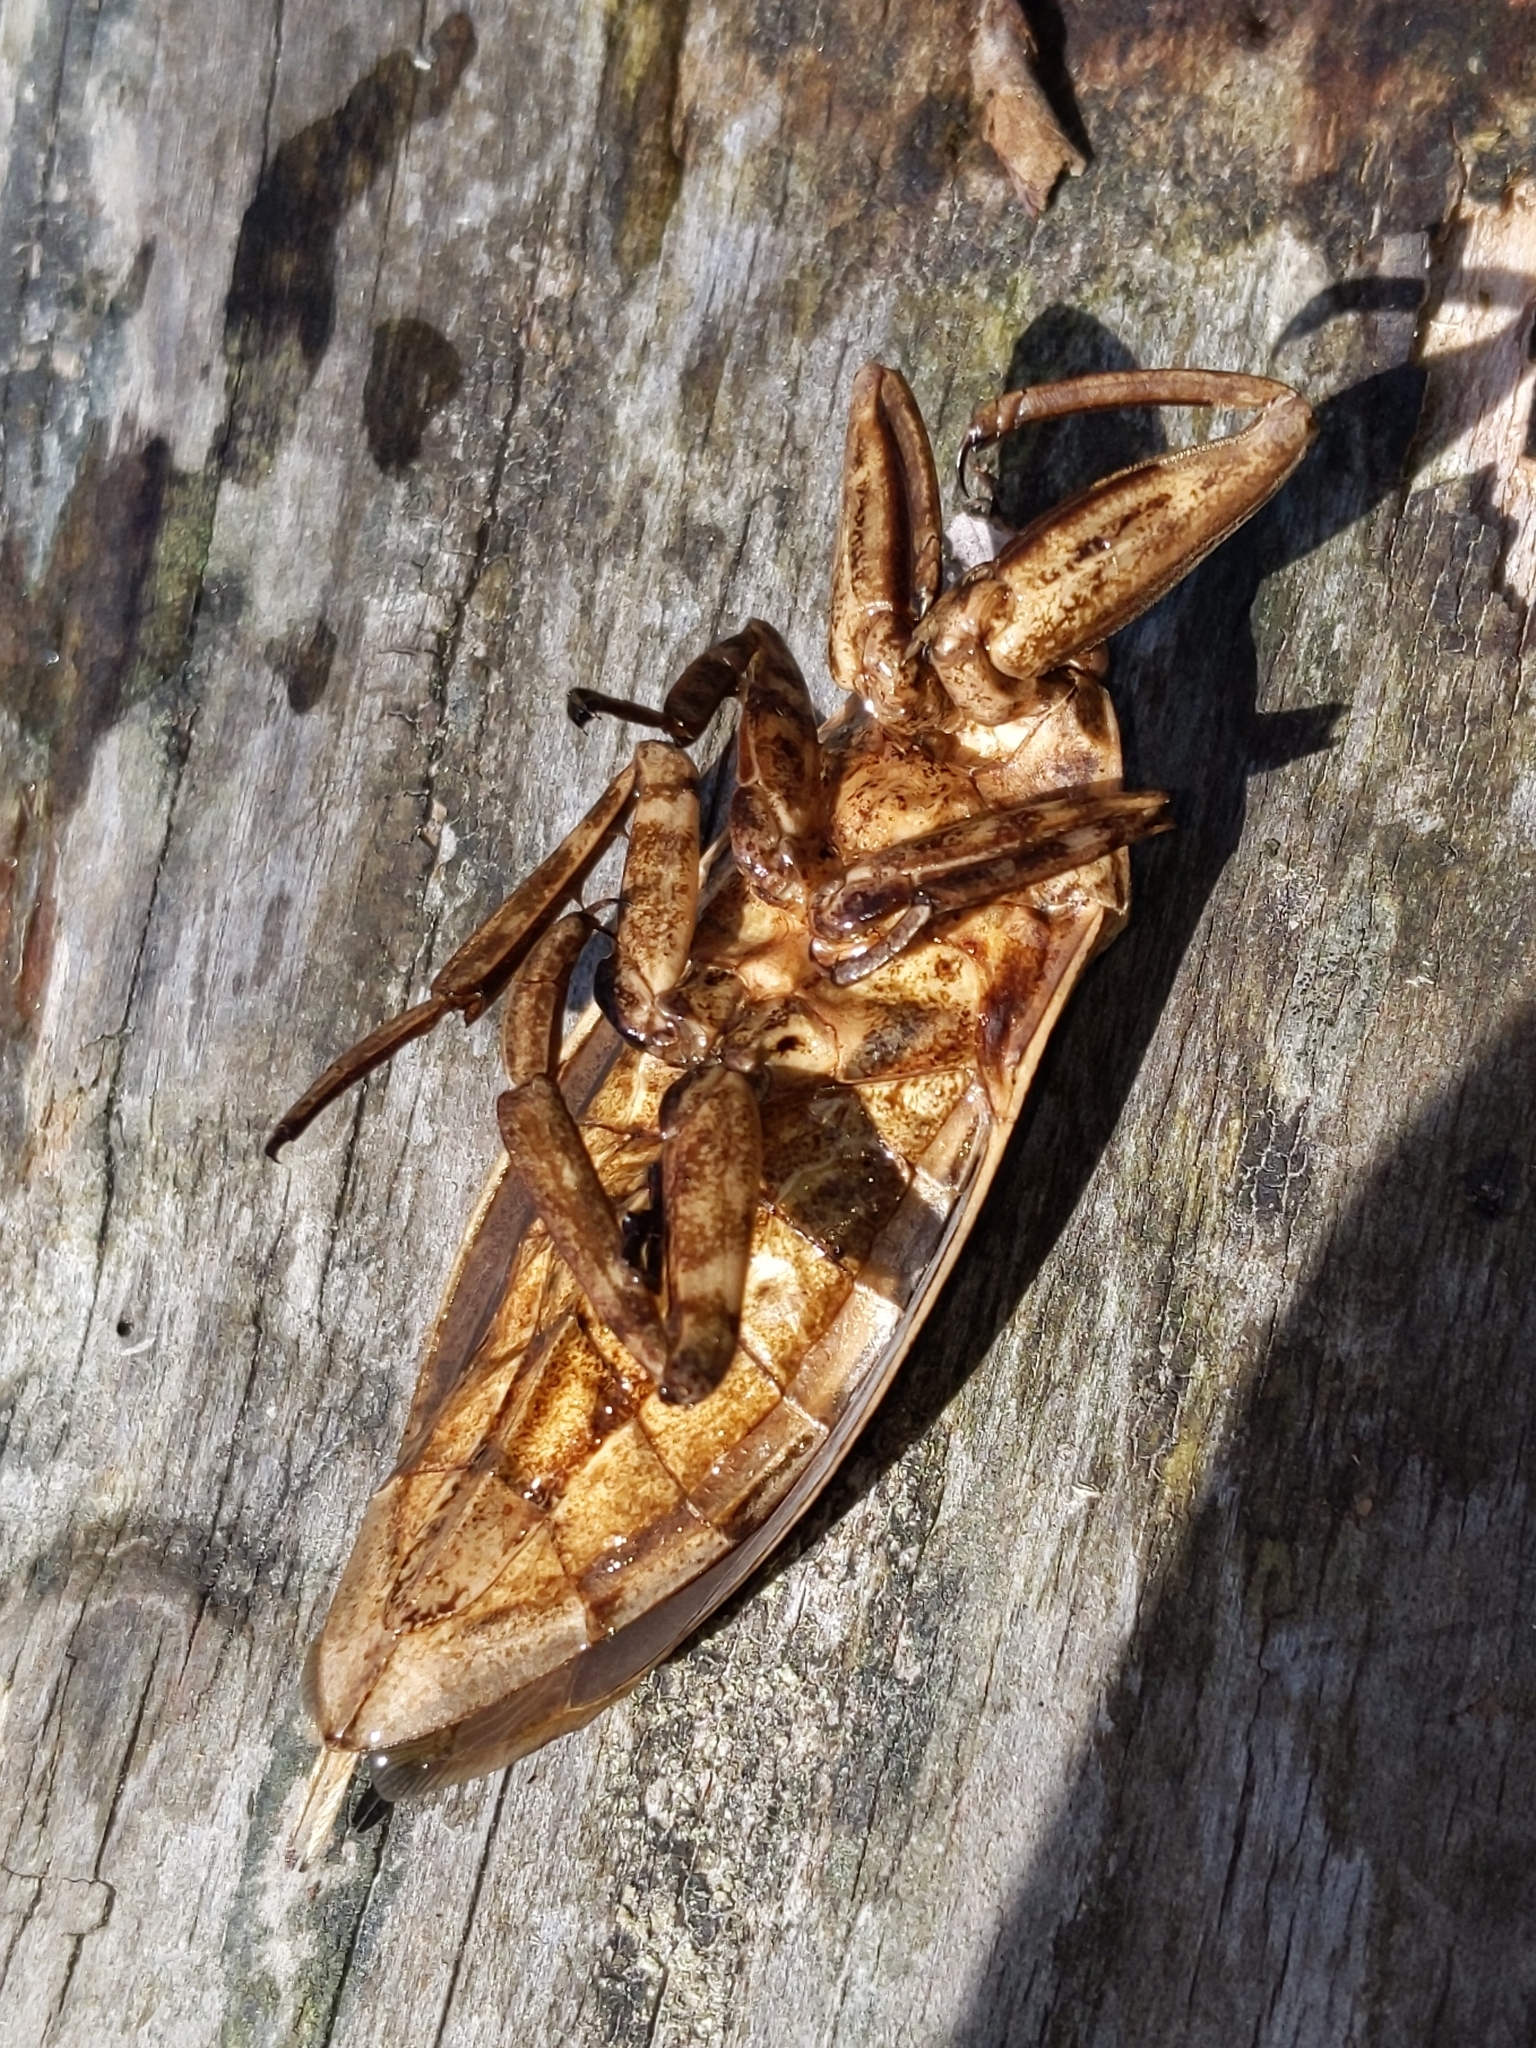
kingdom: Animalia
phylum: Arthropoda
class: Insecta
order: Hemiptera
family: Belostomatidae
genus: Lethocerus
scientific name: Lethocerus americanus
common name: Giant water bug
